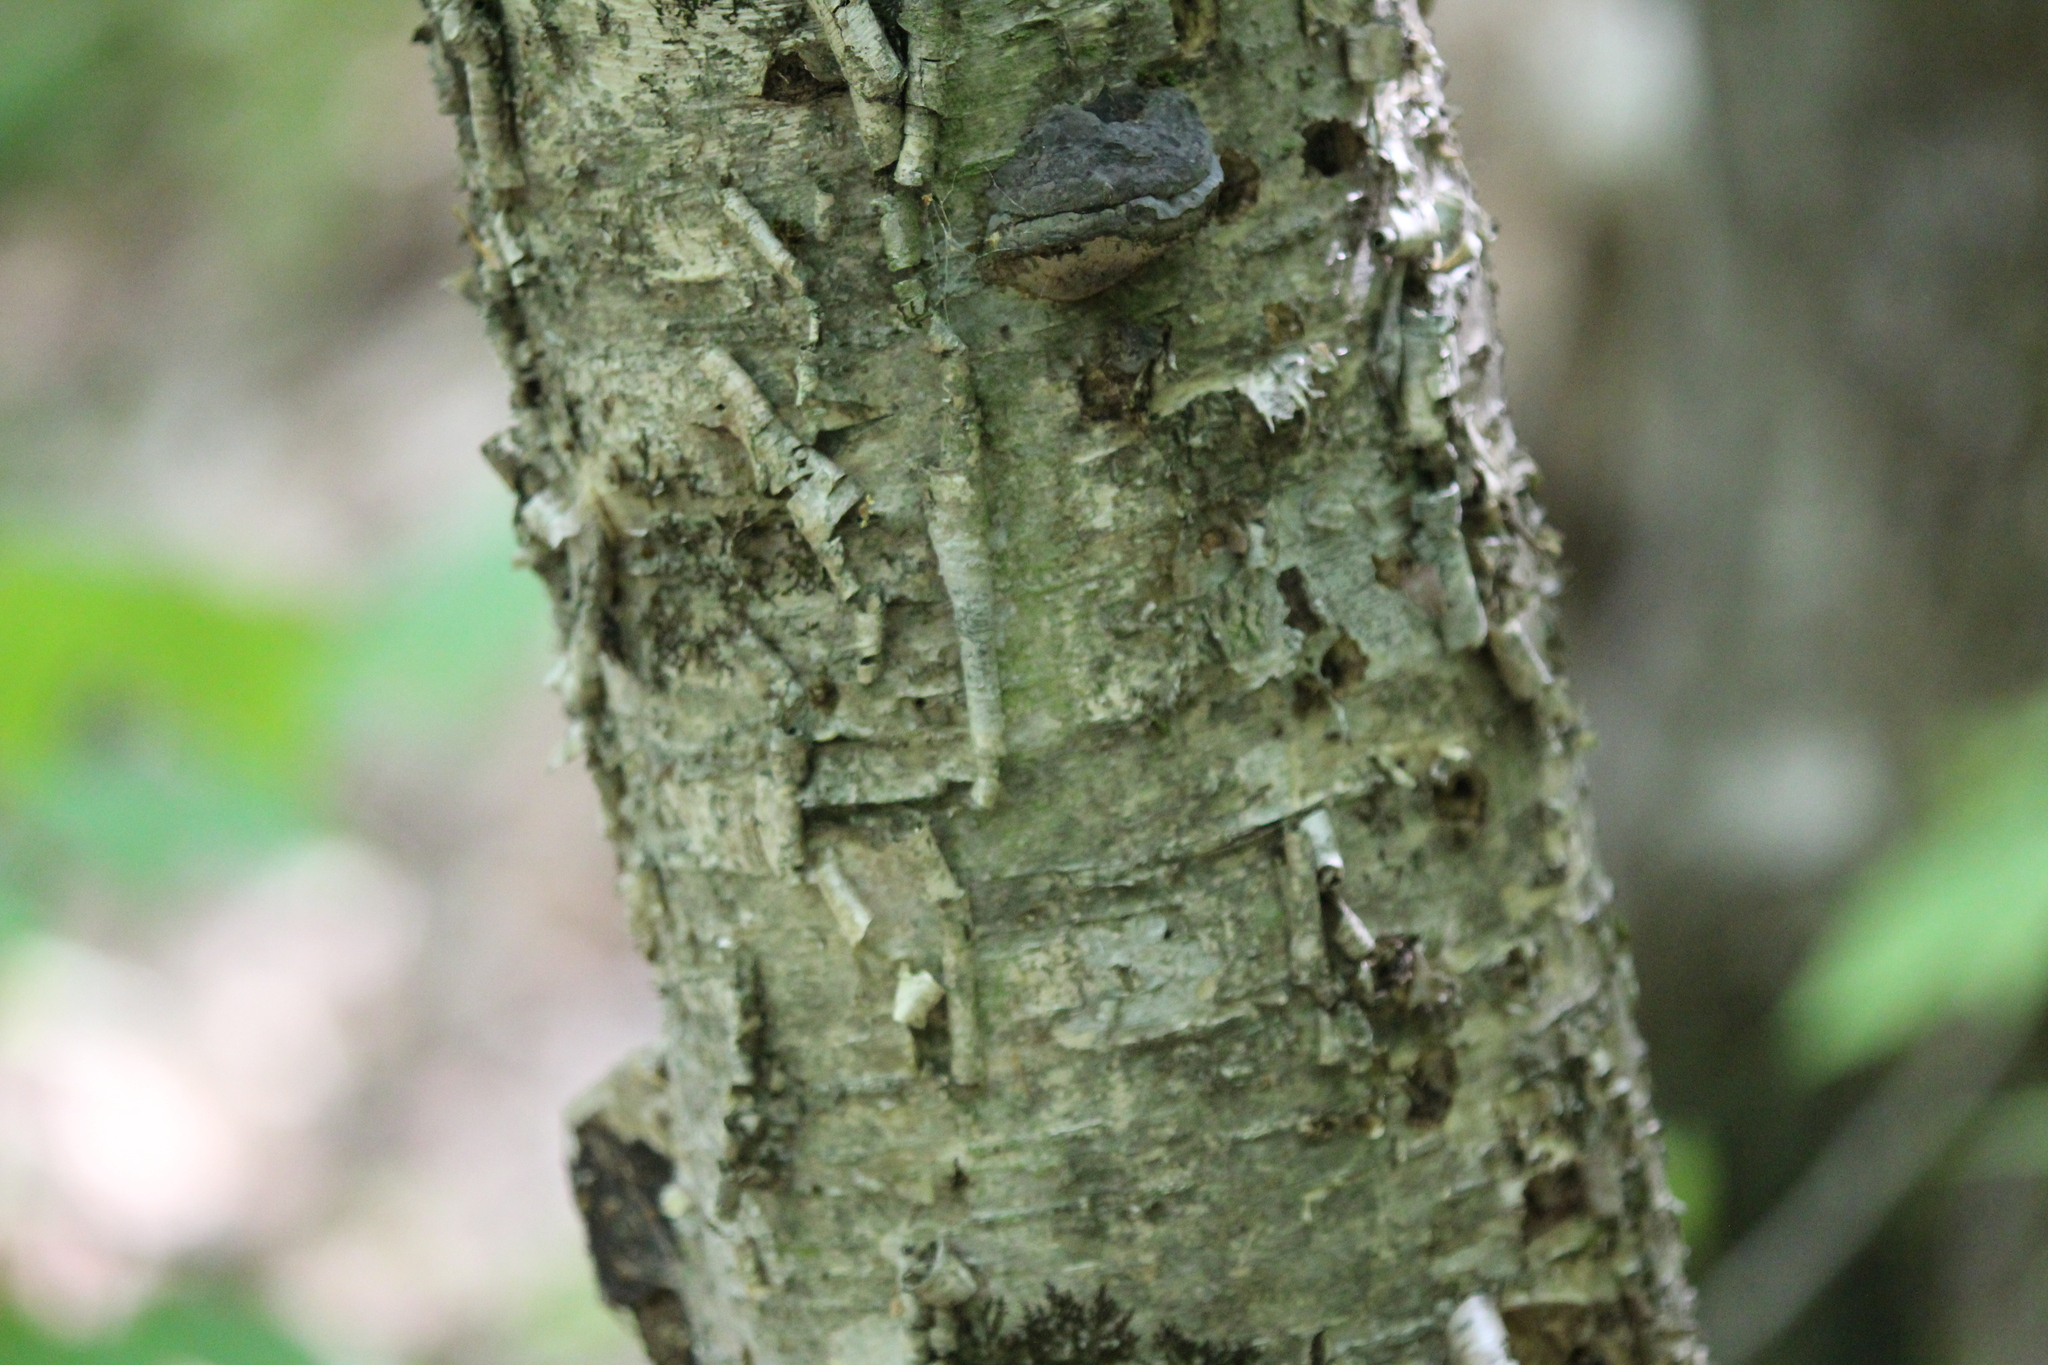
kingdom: Plantae
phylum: Tracheophyta
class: Magnoliopsida
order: Fagales
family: Betulaceae
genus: Betula
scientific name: Betula alleghaniensis
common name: Yellow birch
